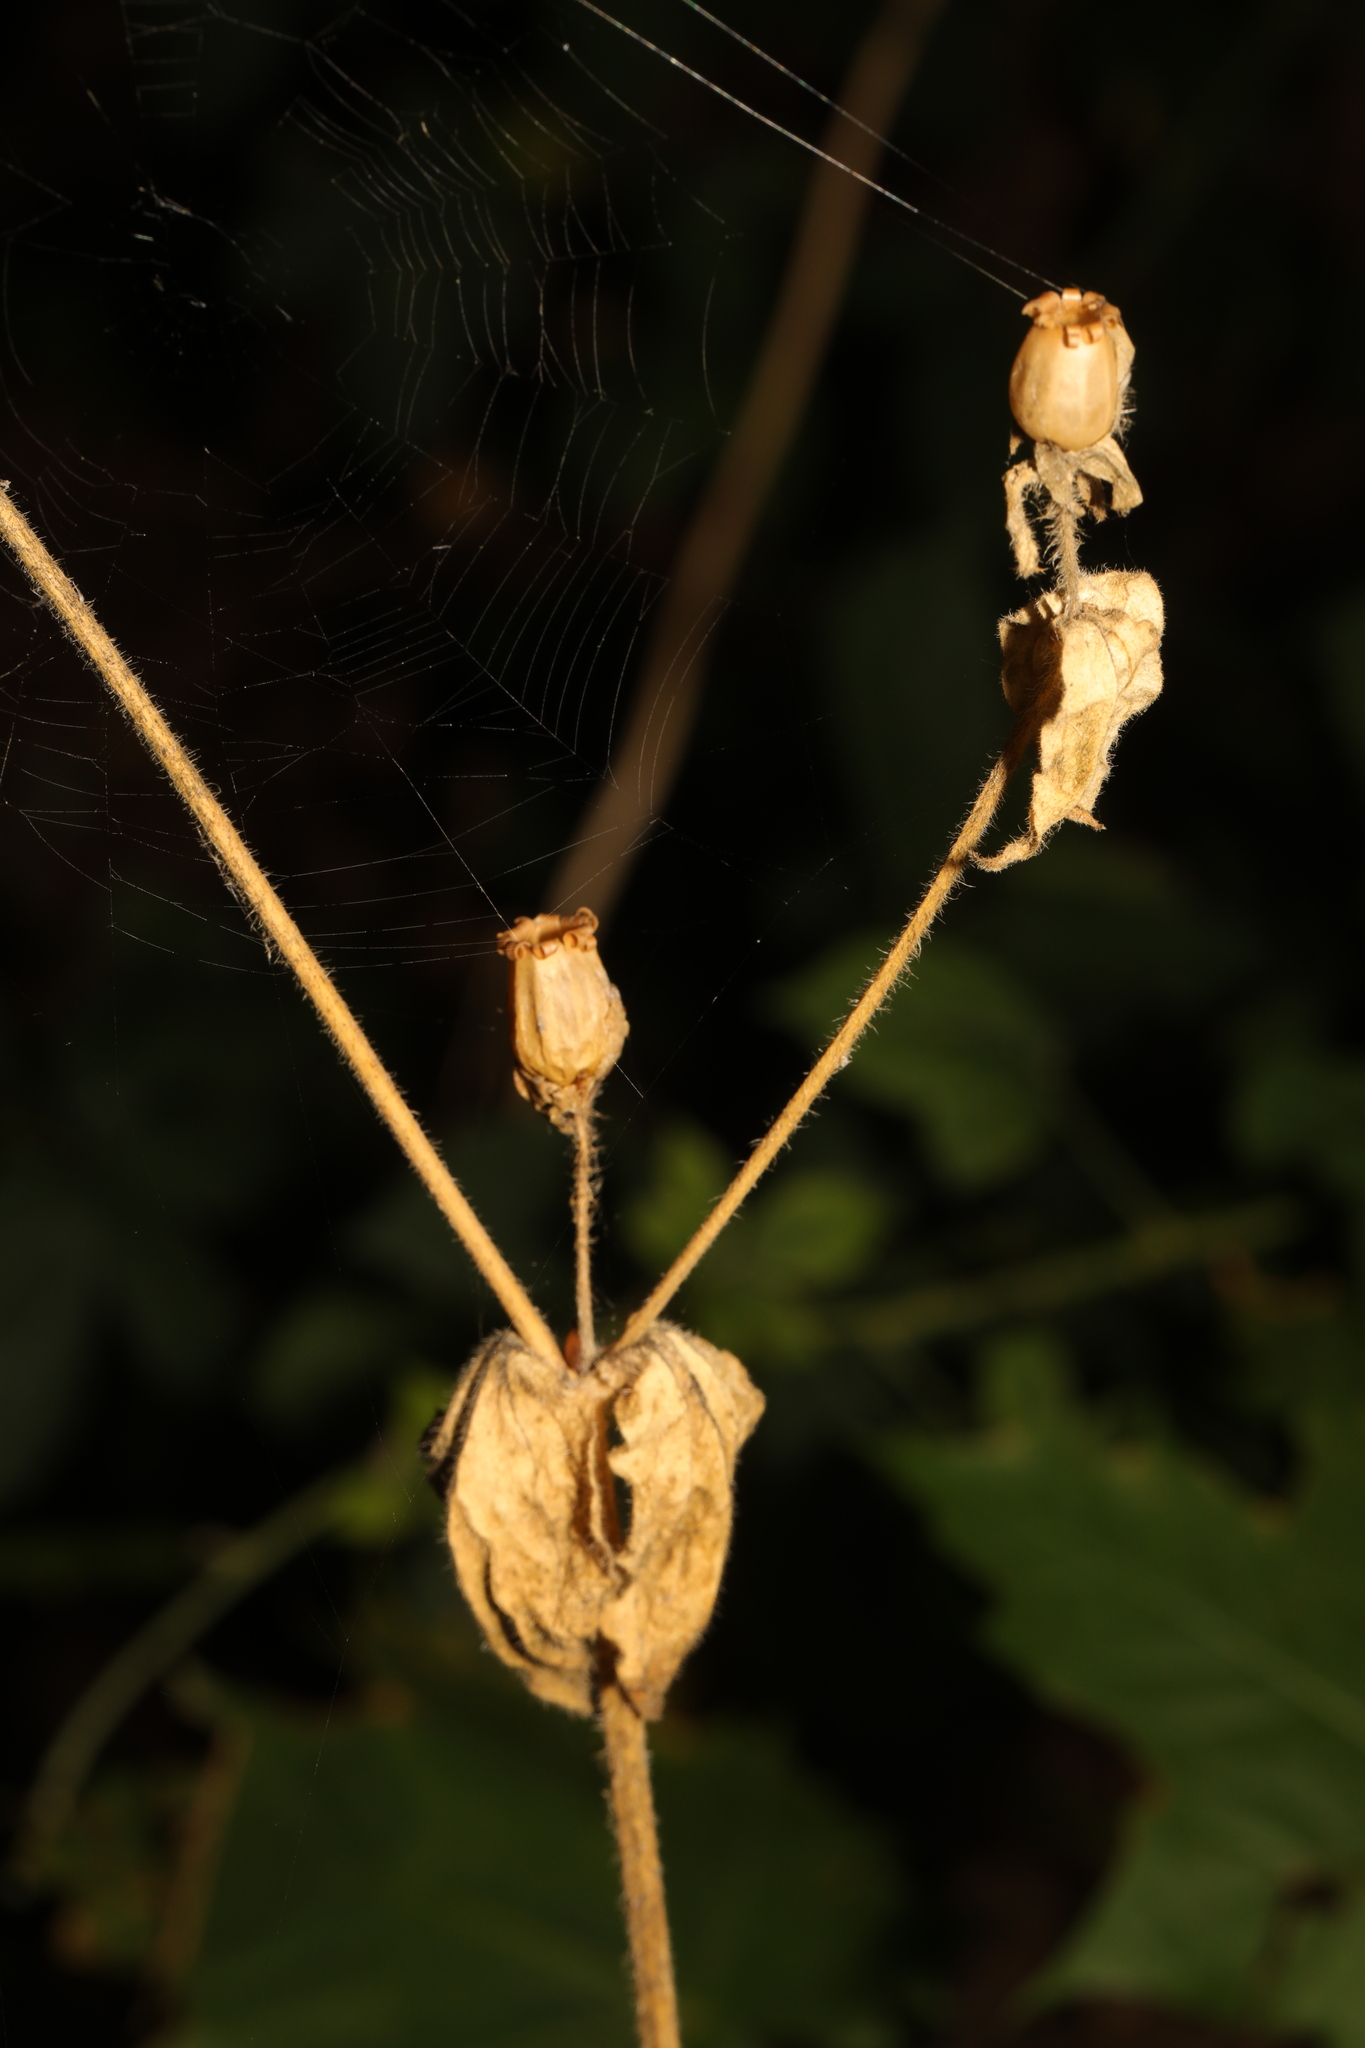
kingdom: Plantae
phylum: Tracheophyta
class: Magnoliopsida
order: Caryophyllales
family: Caryophyllaceae
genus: Silene
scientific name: Silene dioica
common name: Red campion
